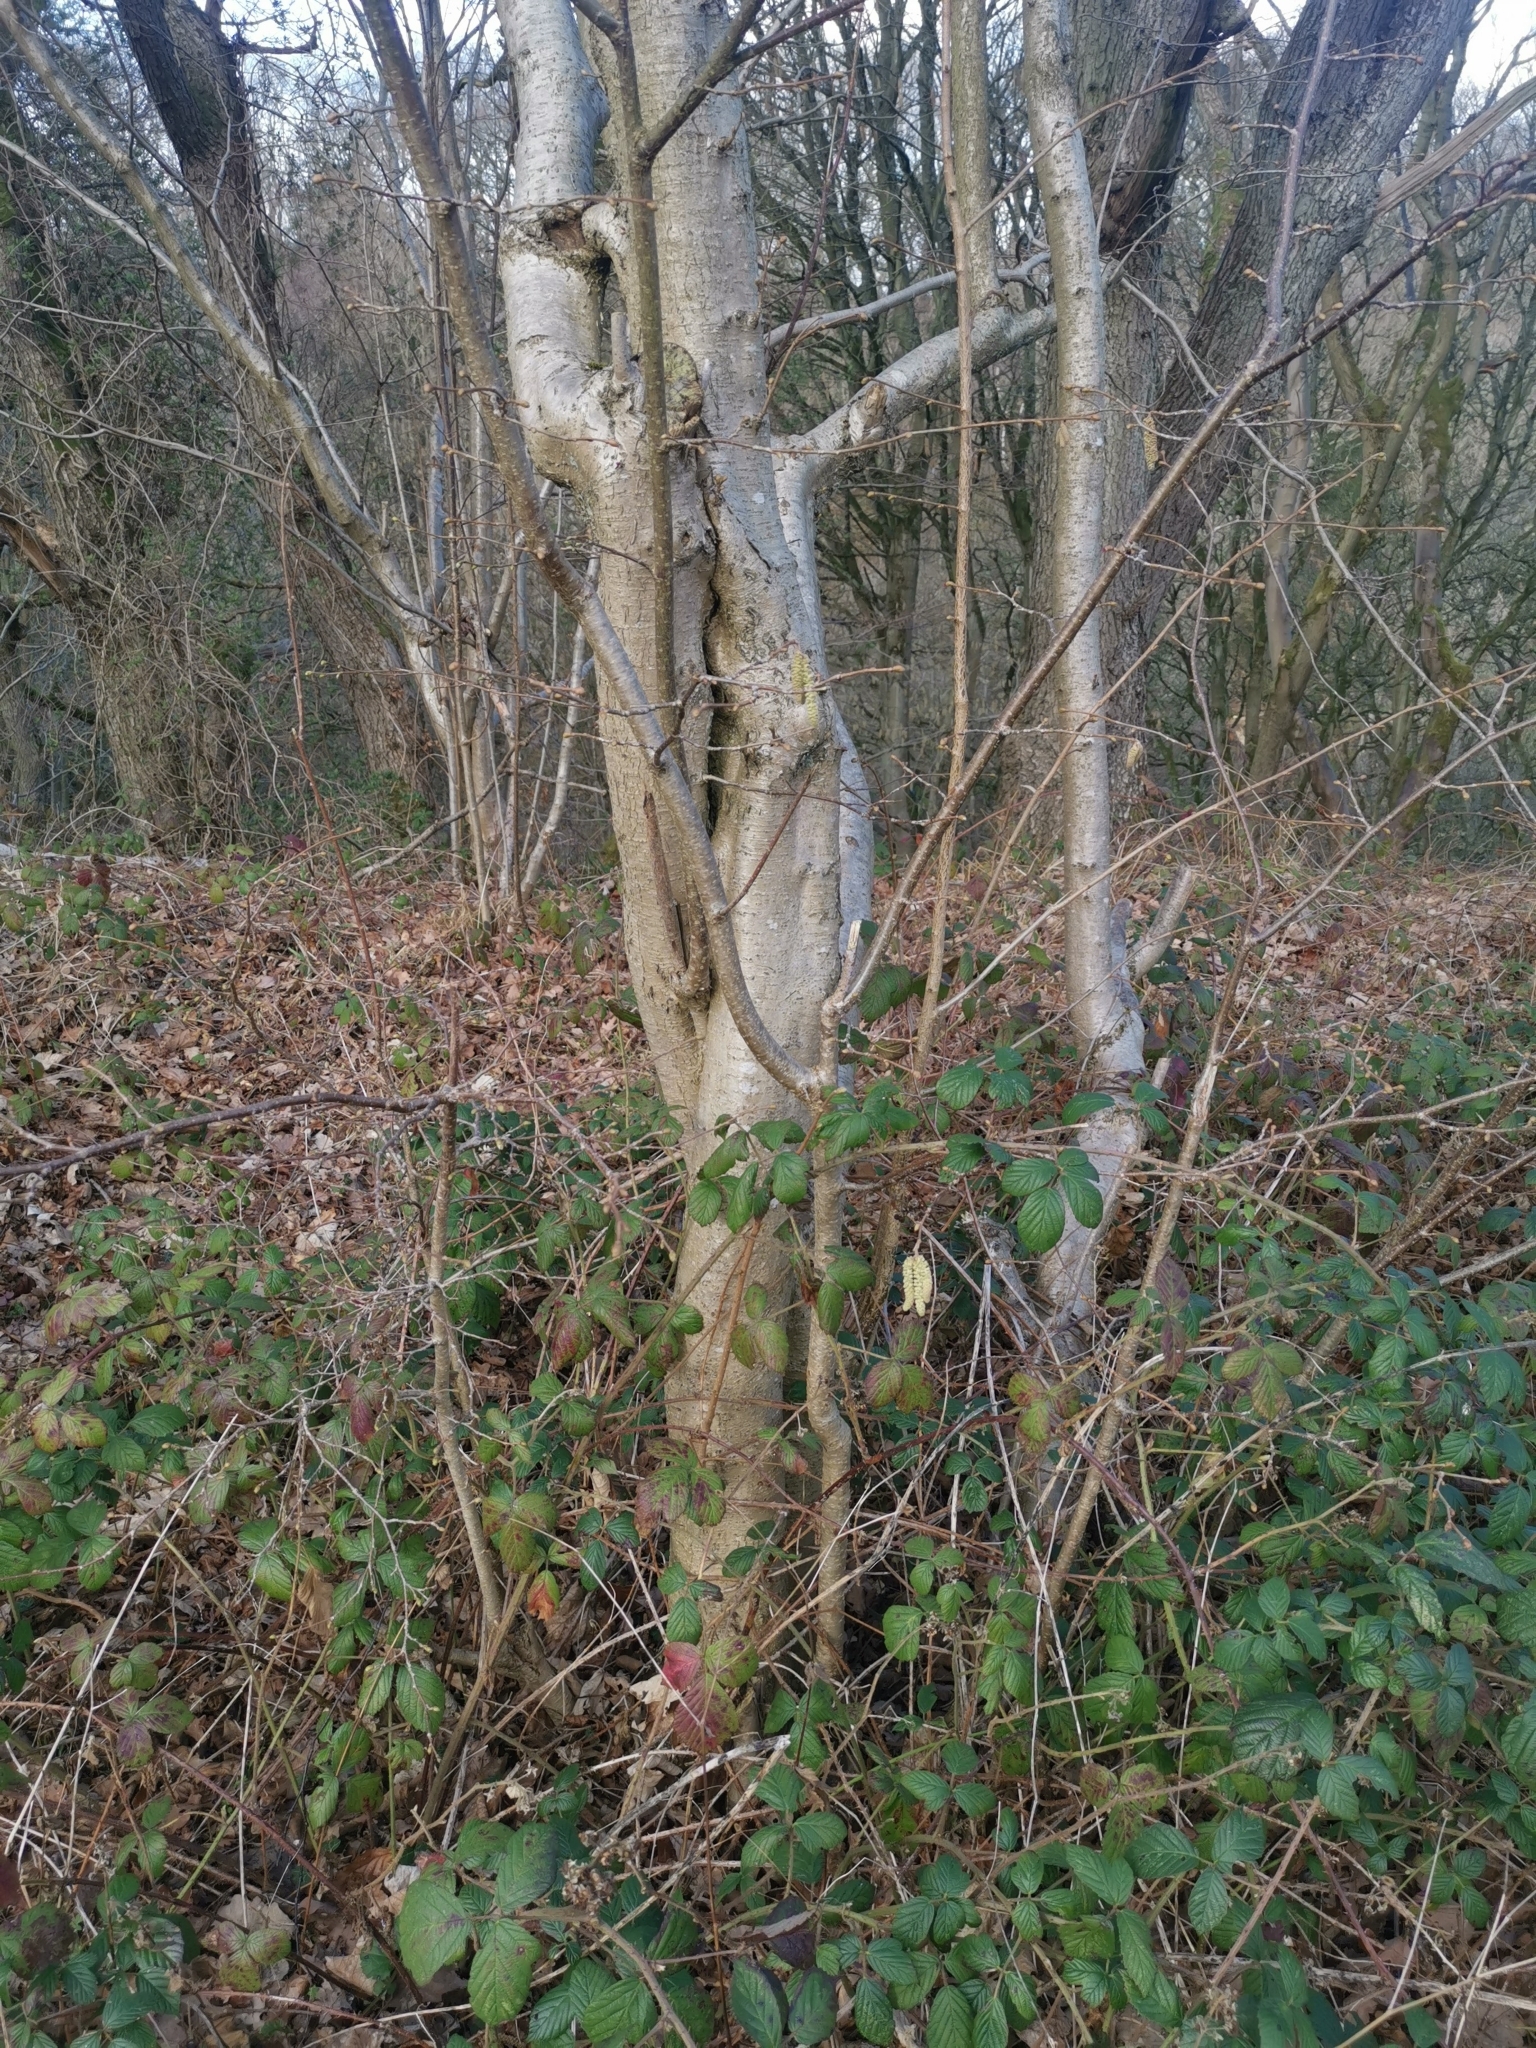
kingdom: Plantae
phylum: Tracheophyta
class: Magnoliopsida
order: Fagales
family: Betulaceae
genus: Corylus
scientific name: Corylus avellana
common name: European hazel
